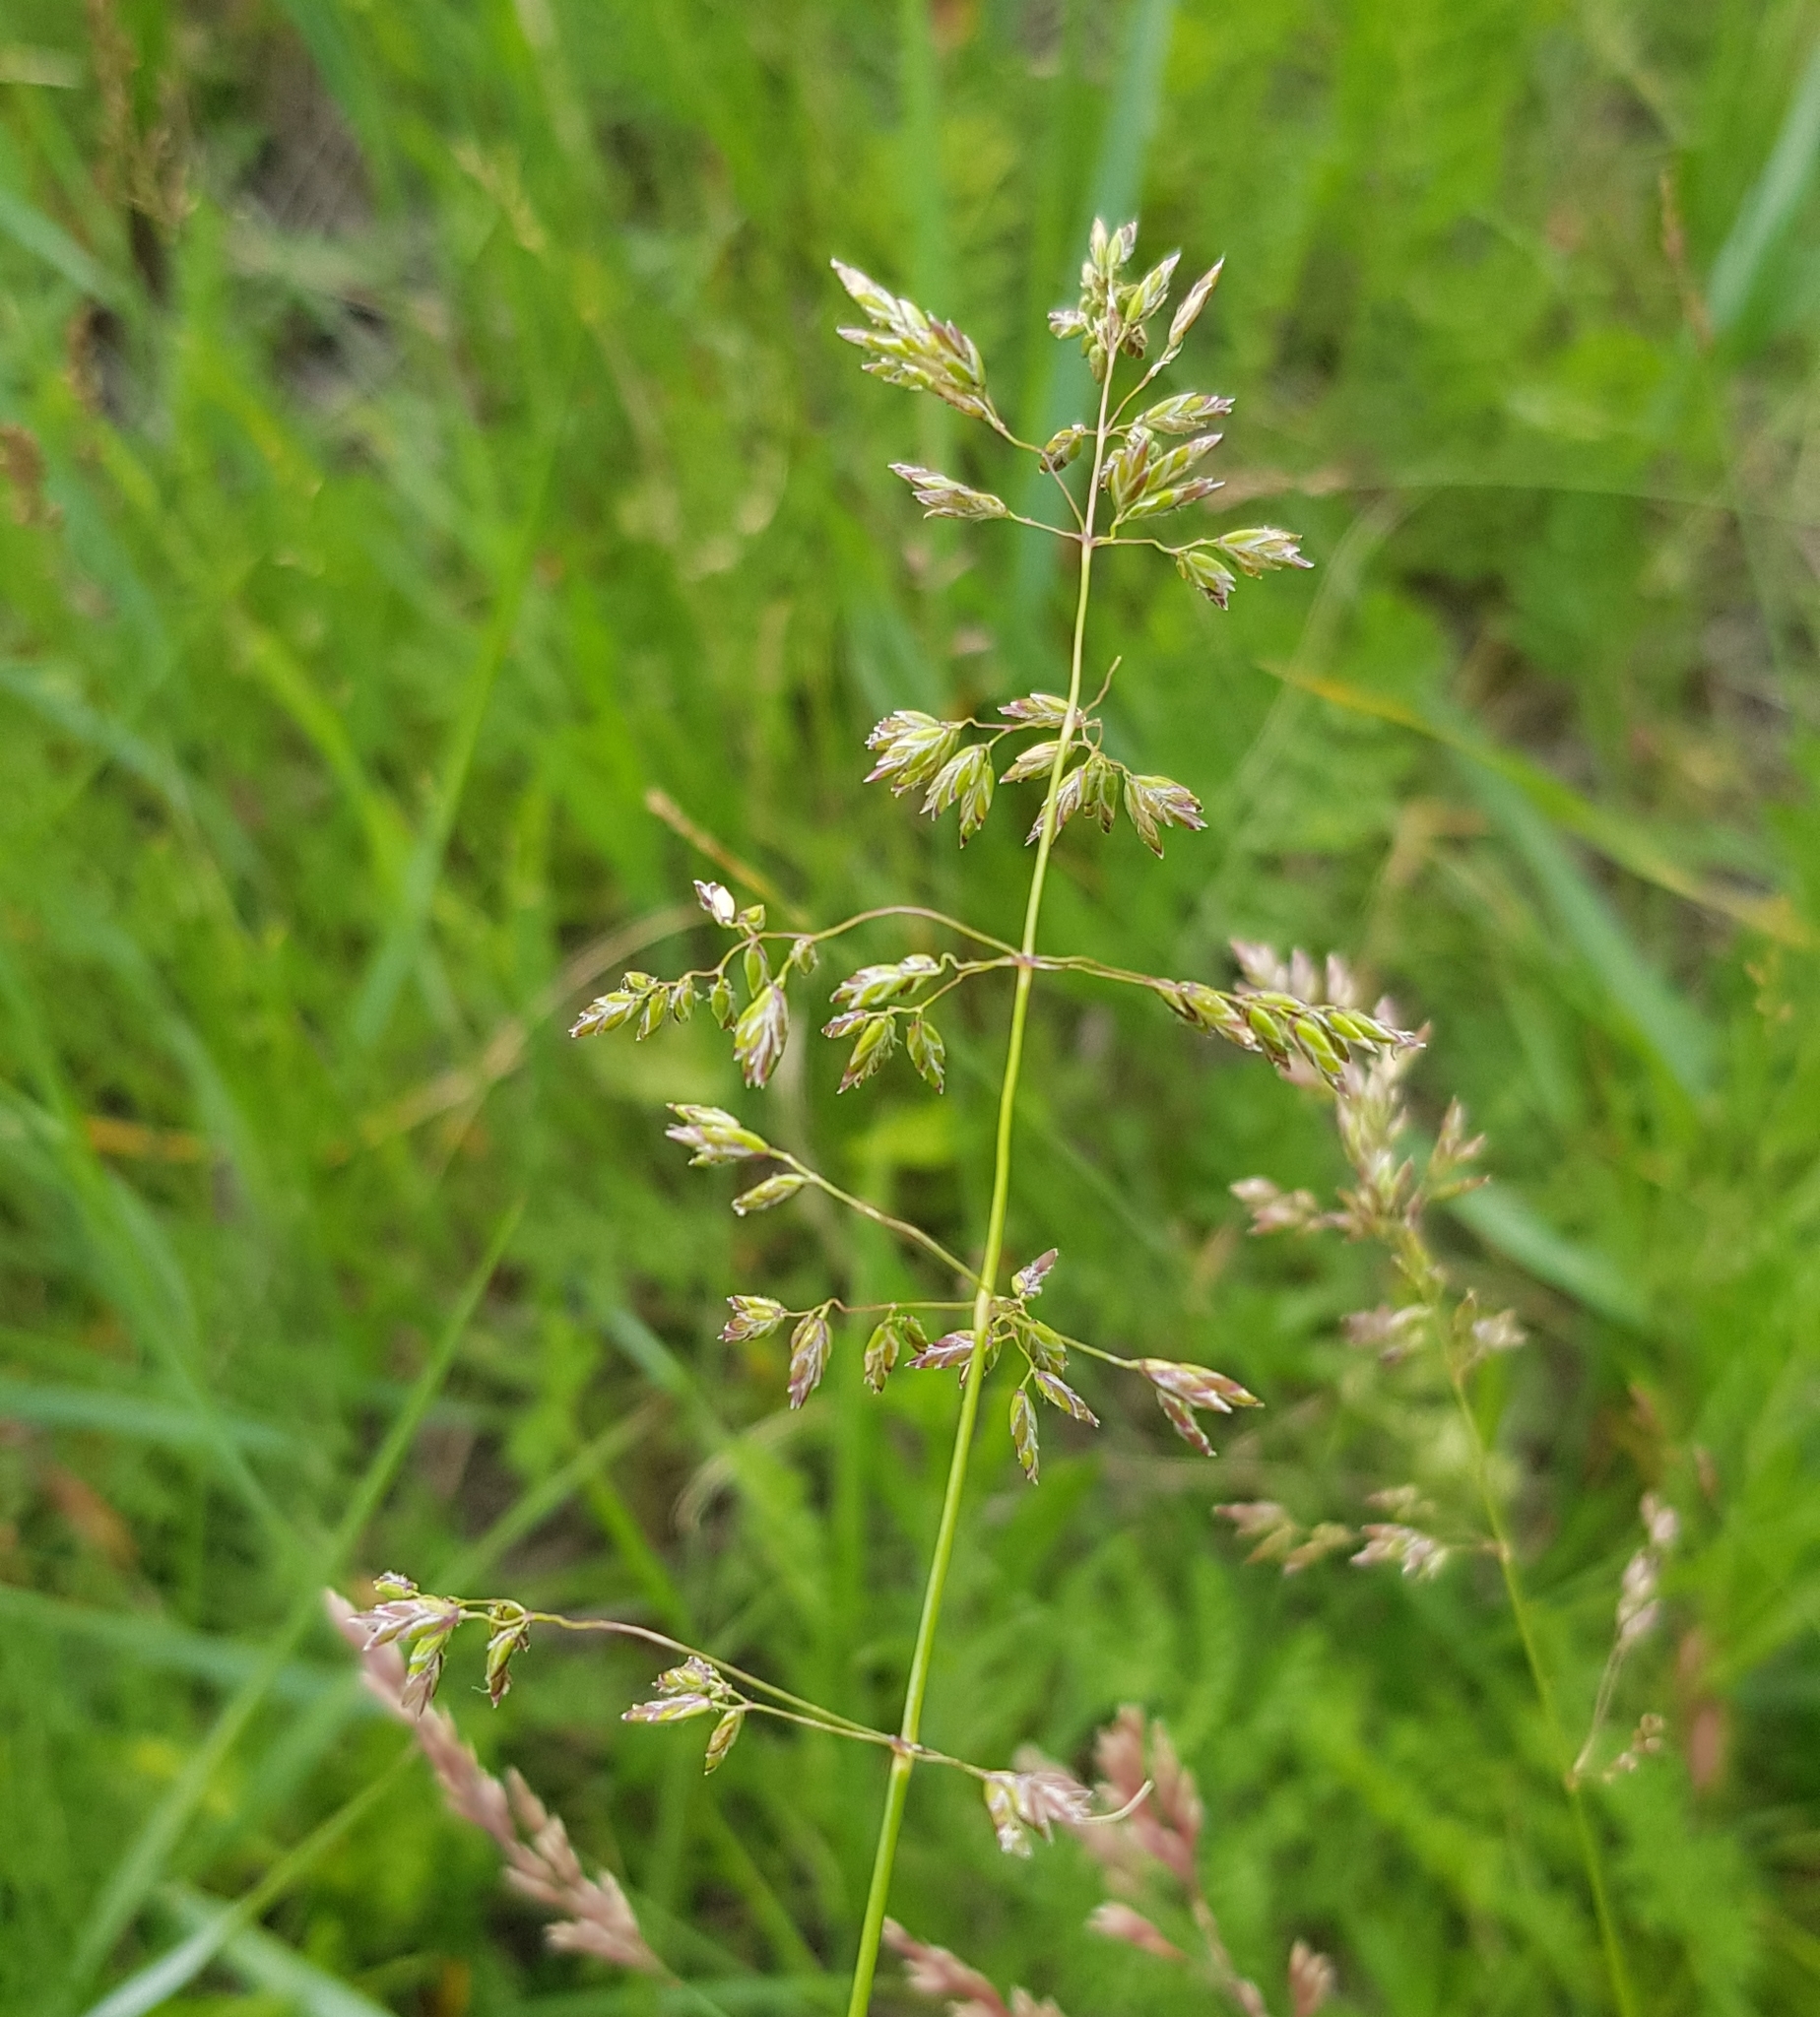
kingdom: Plantae
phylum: Tracheophyta
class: Liliopsida
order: Poales
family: Poaceae
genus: Poa
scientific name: Poa pratensis
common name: Kentucky bluegrass
